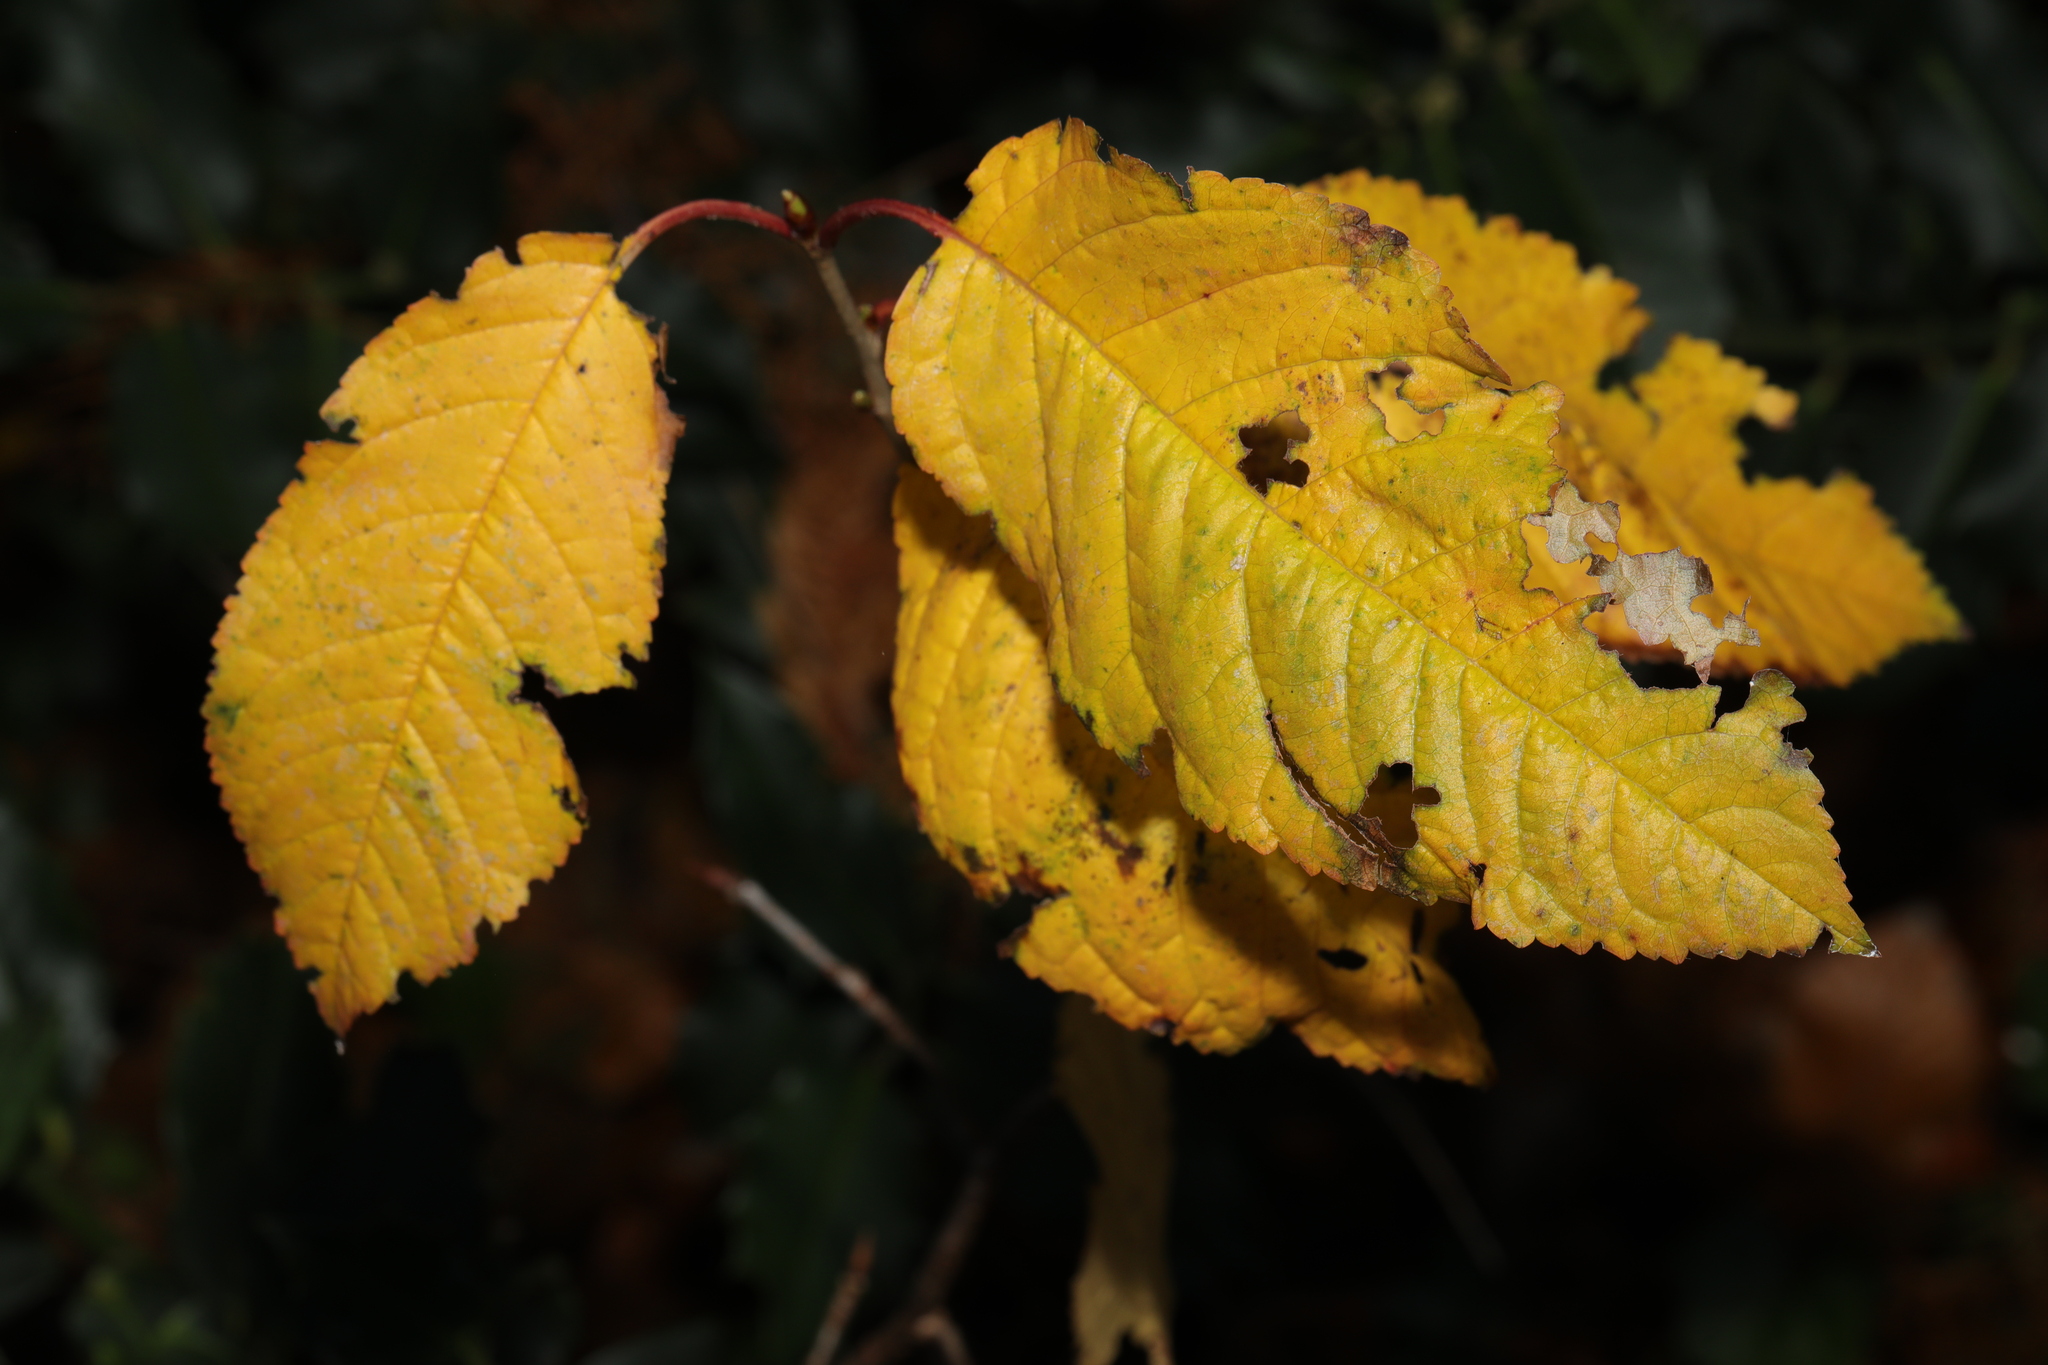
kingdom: Plantae
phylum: Tracheophyta
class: Magnoliopsida
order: Rosales
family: Rosaceae
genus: Prunus
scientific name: Prunus avium
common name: Sweet cherry
